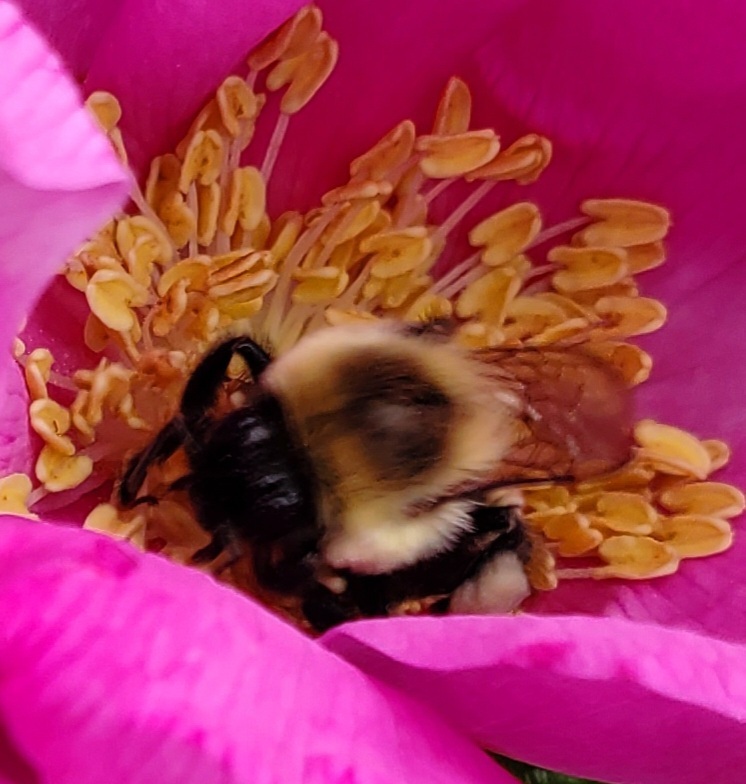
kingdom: Animalia
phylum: Arthropoda
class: Insecta
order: Hymenoptera
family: Apidae
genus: Bombus
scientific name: Bombus impatiens
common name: Common eastern bumble bee
